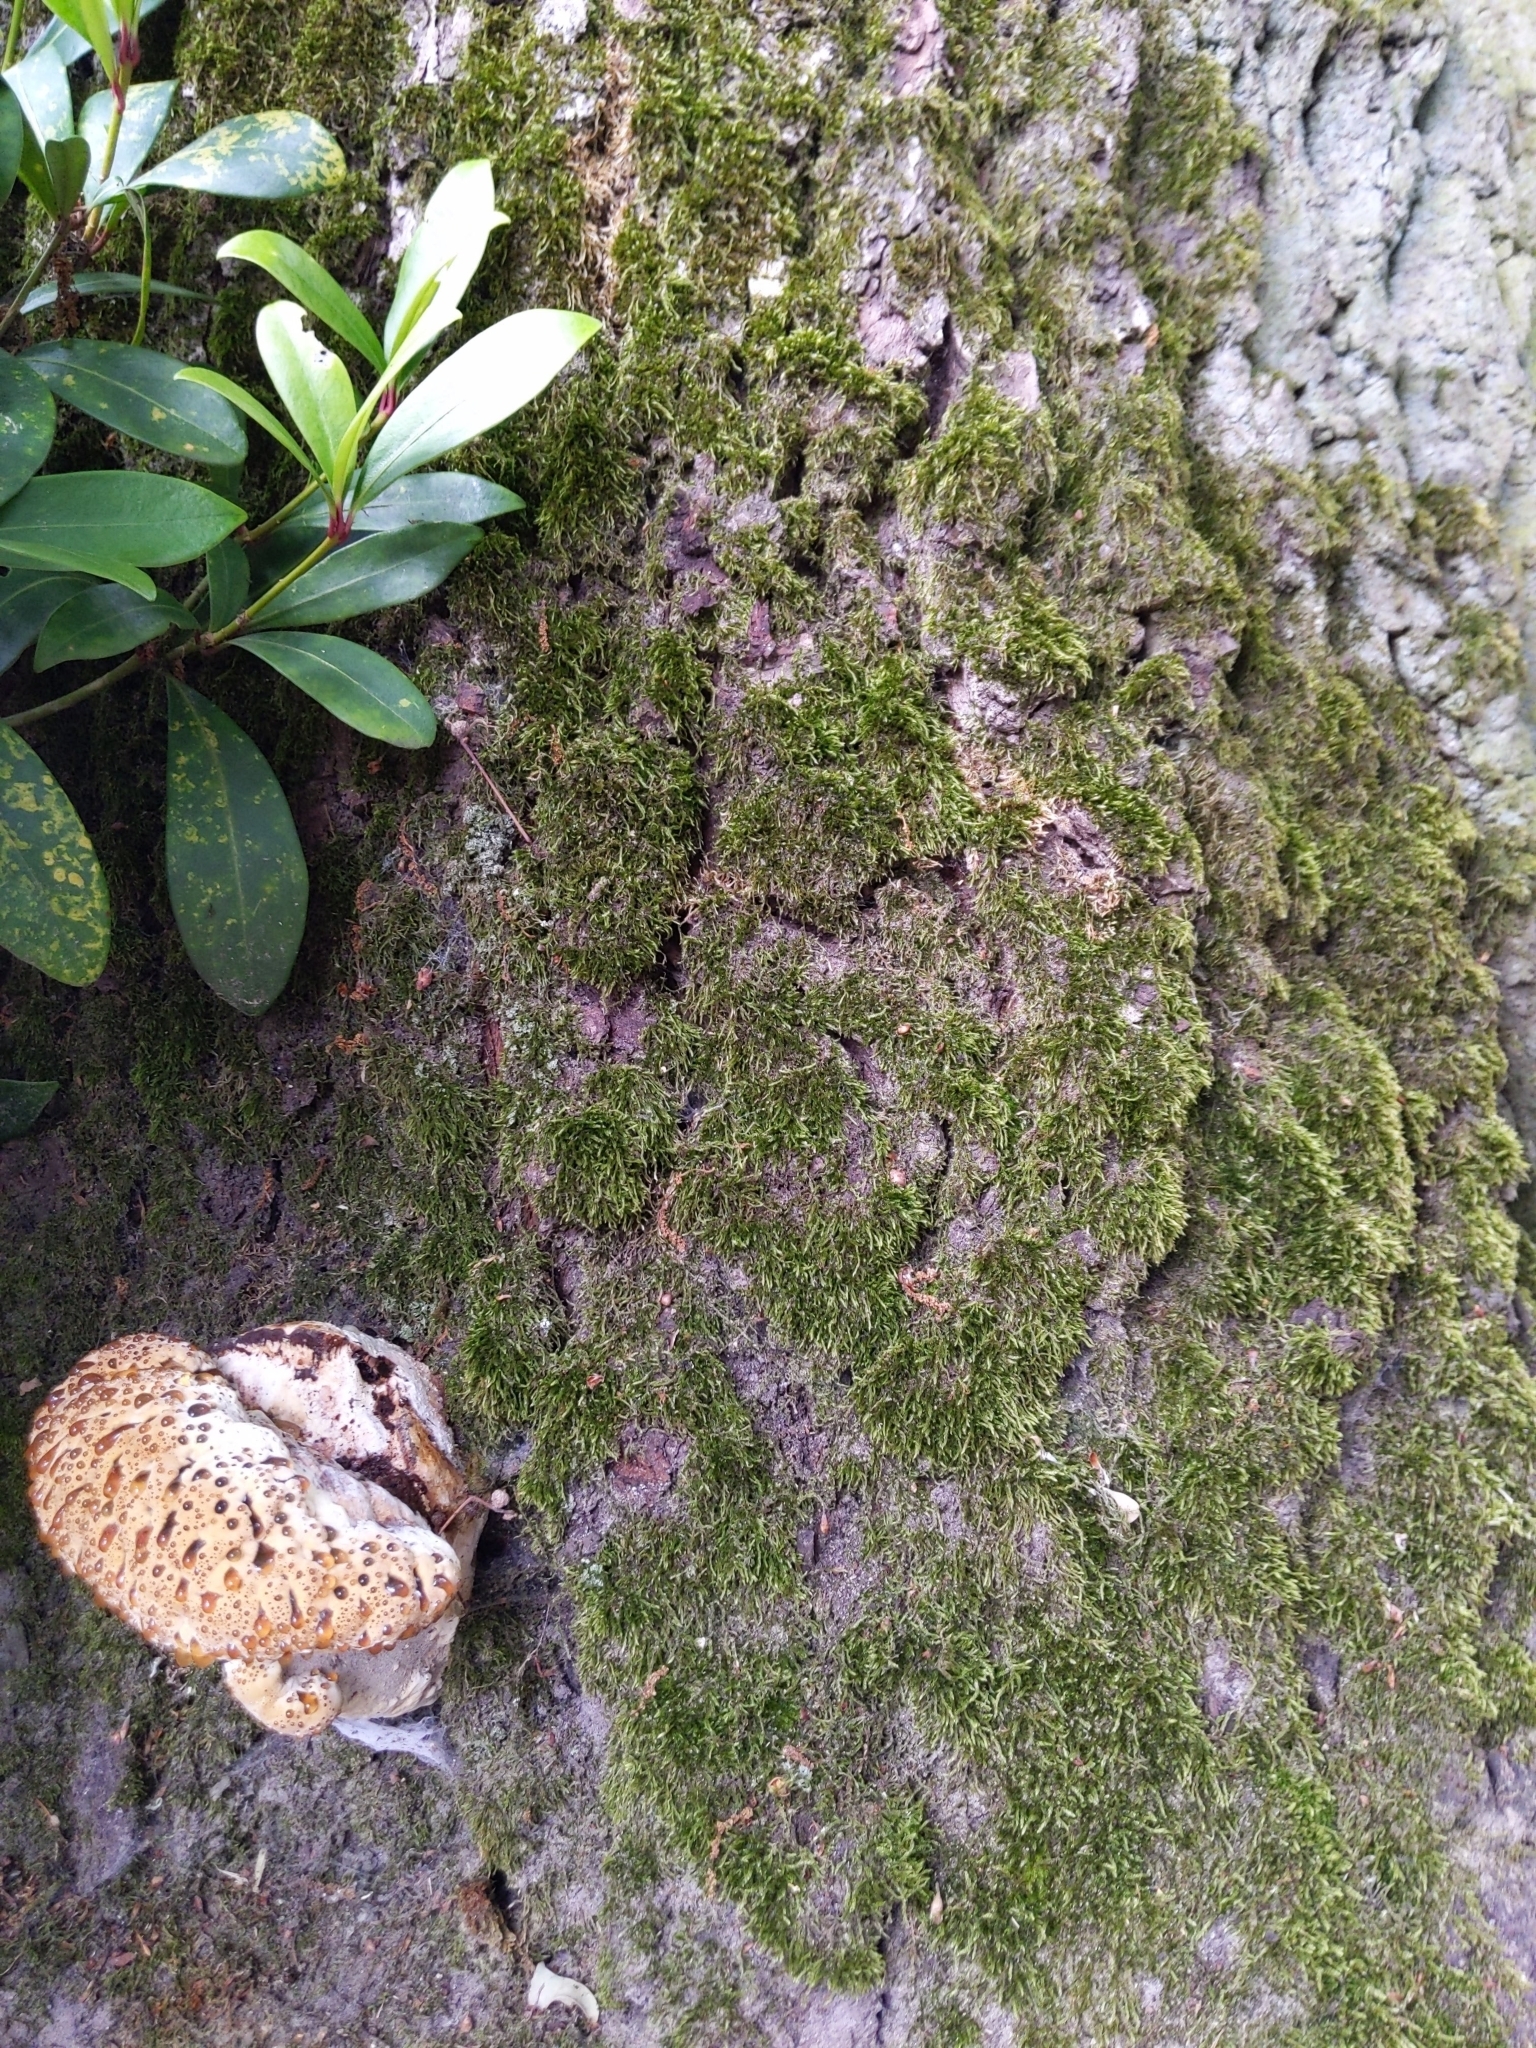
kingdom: Fungi
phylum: Basidiomycota
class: Agaricomycetes
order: Hymenochaetales
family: Hymenochaetaceae
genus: Pseudoinonotus
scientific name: Pseudoinonotus dryadeus
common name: Oak bracket
